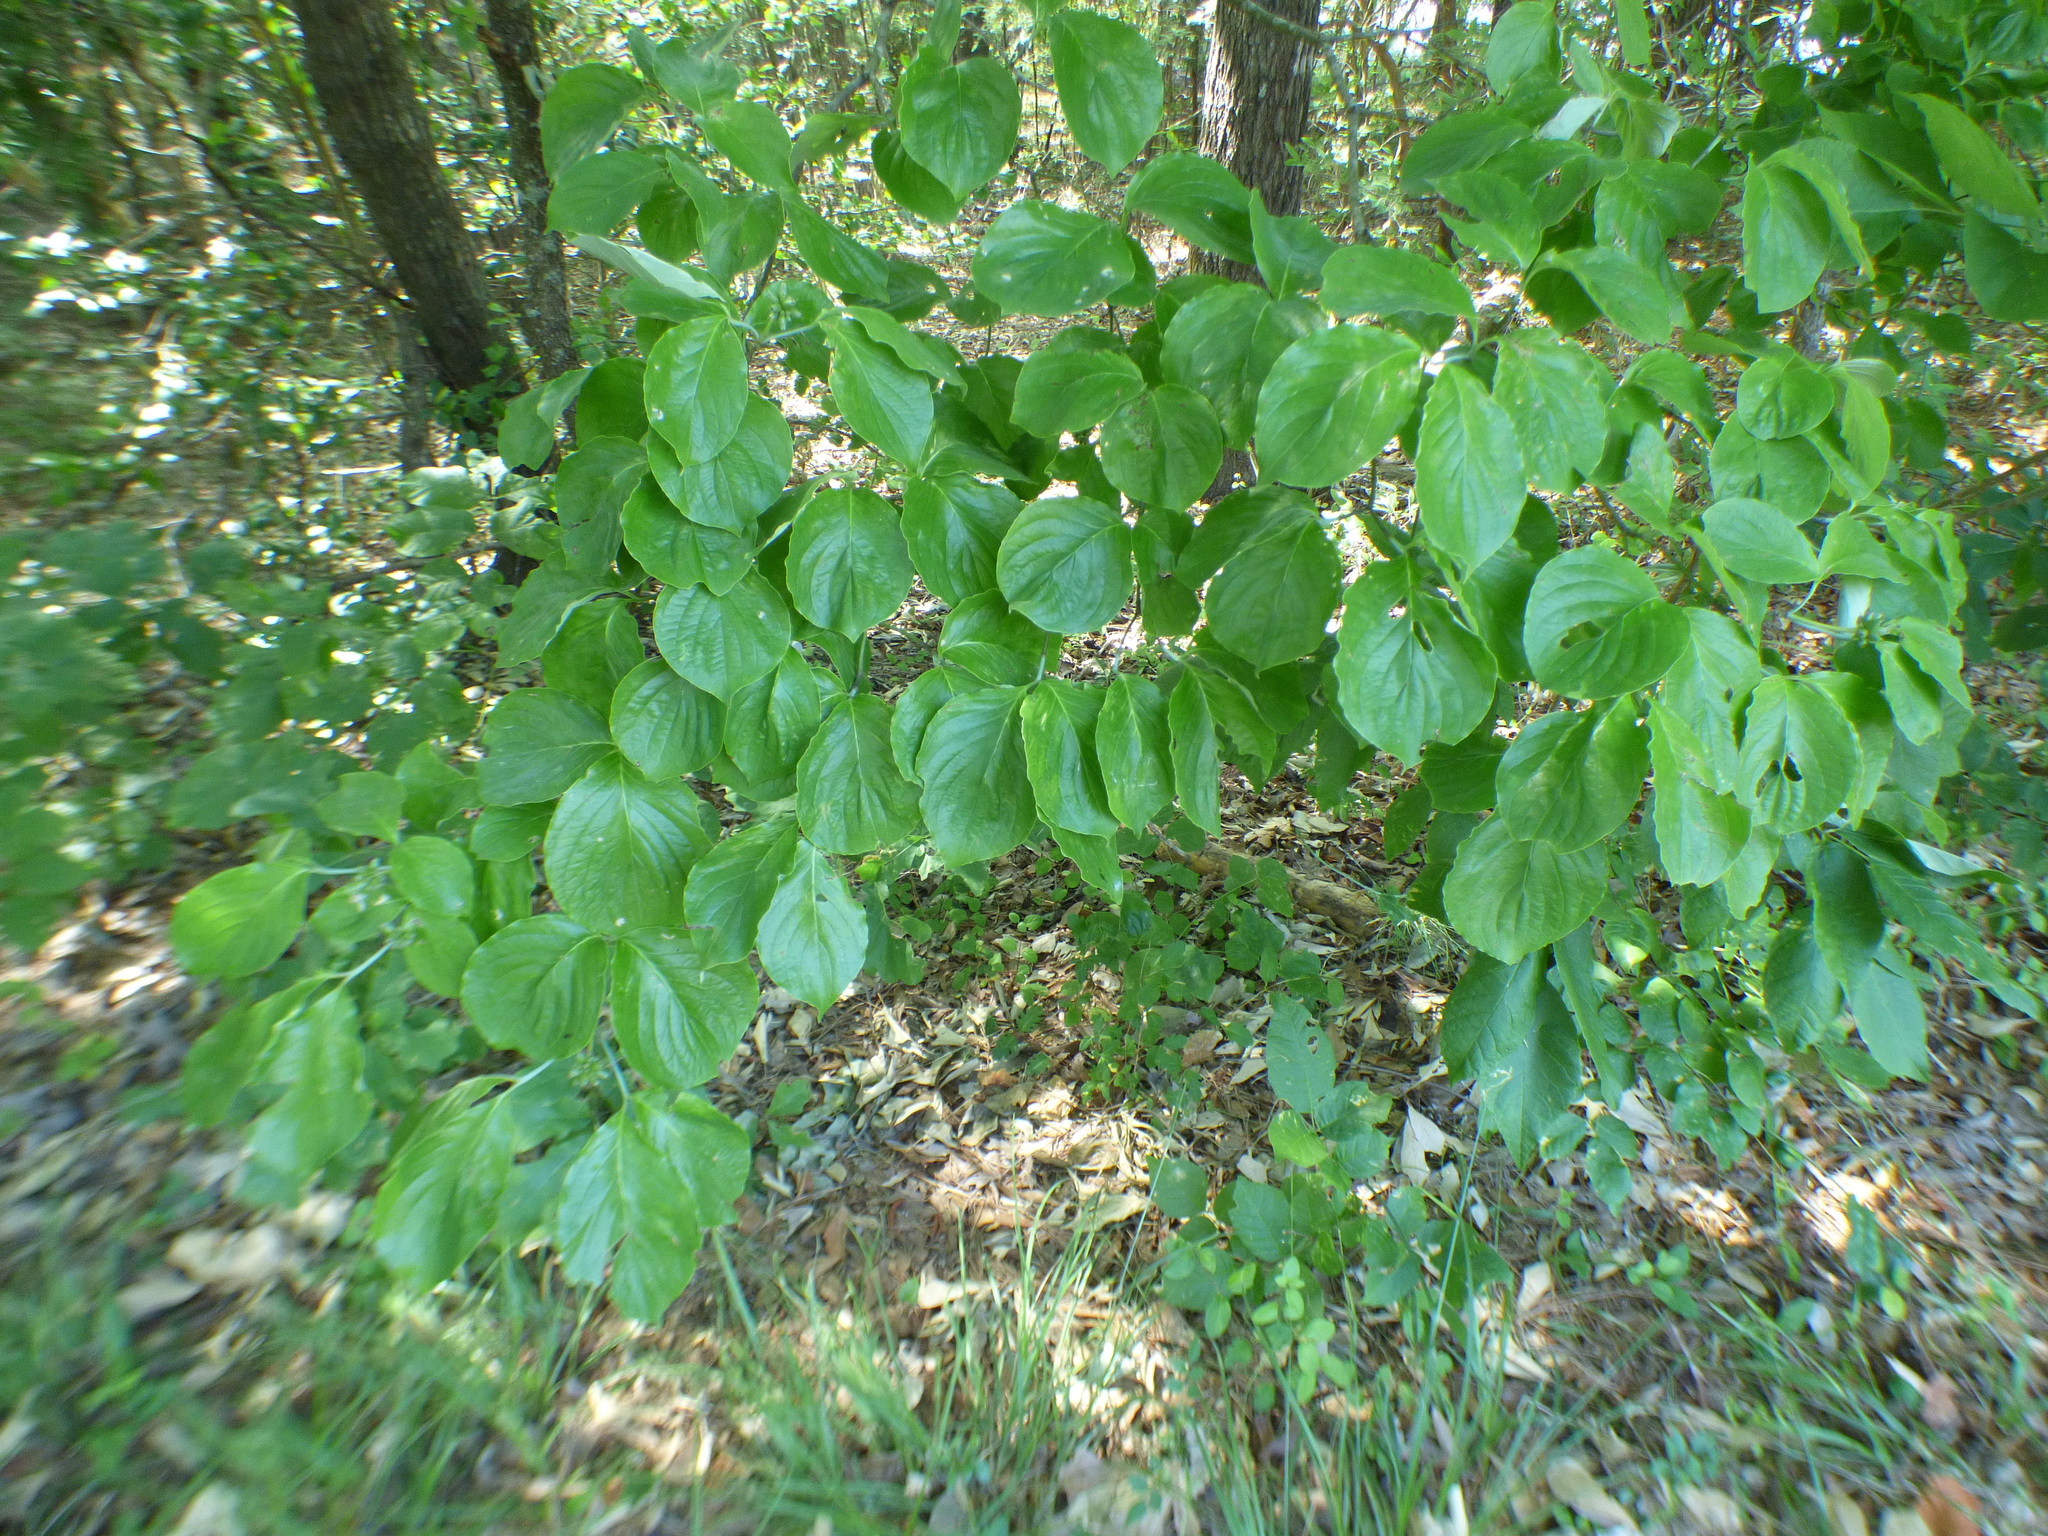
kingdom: Plantae
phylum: Tracheophyta
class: Magnoliopsida
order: Cornales
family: Cornaceae
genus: Cornus
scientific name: Cornus florida
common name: Flowering dogwood
